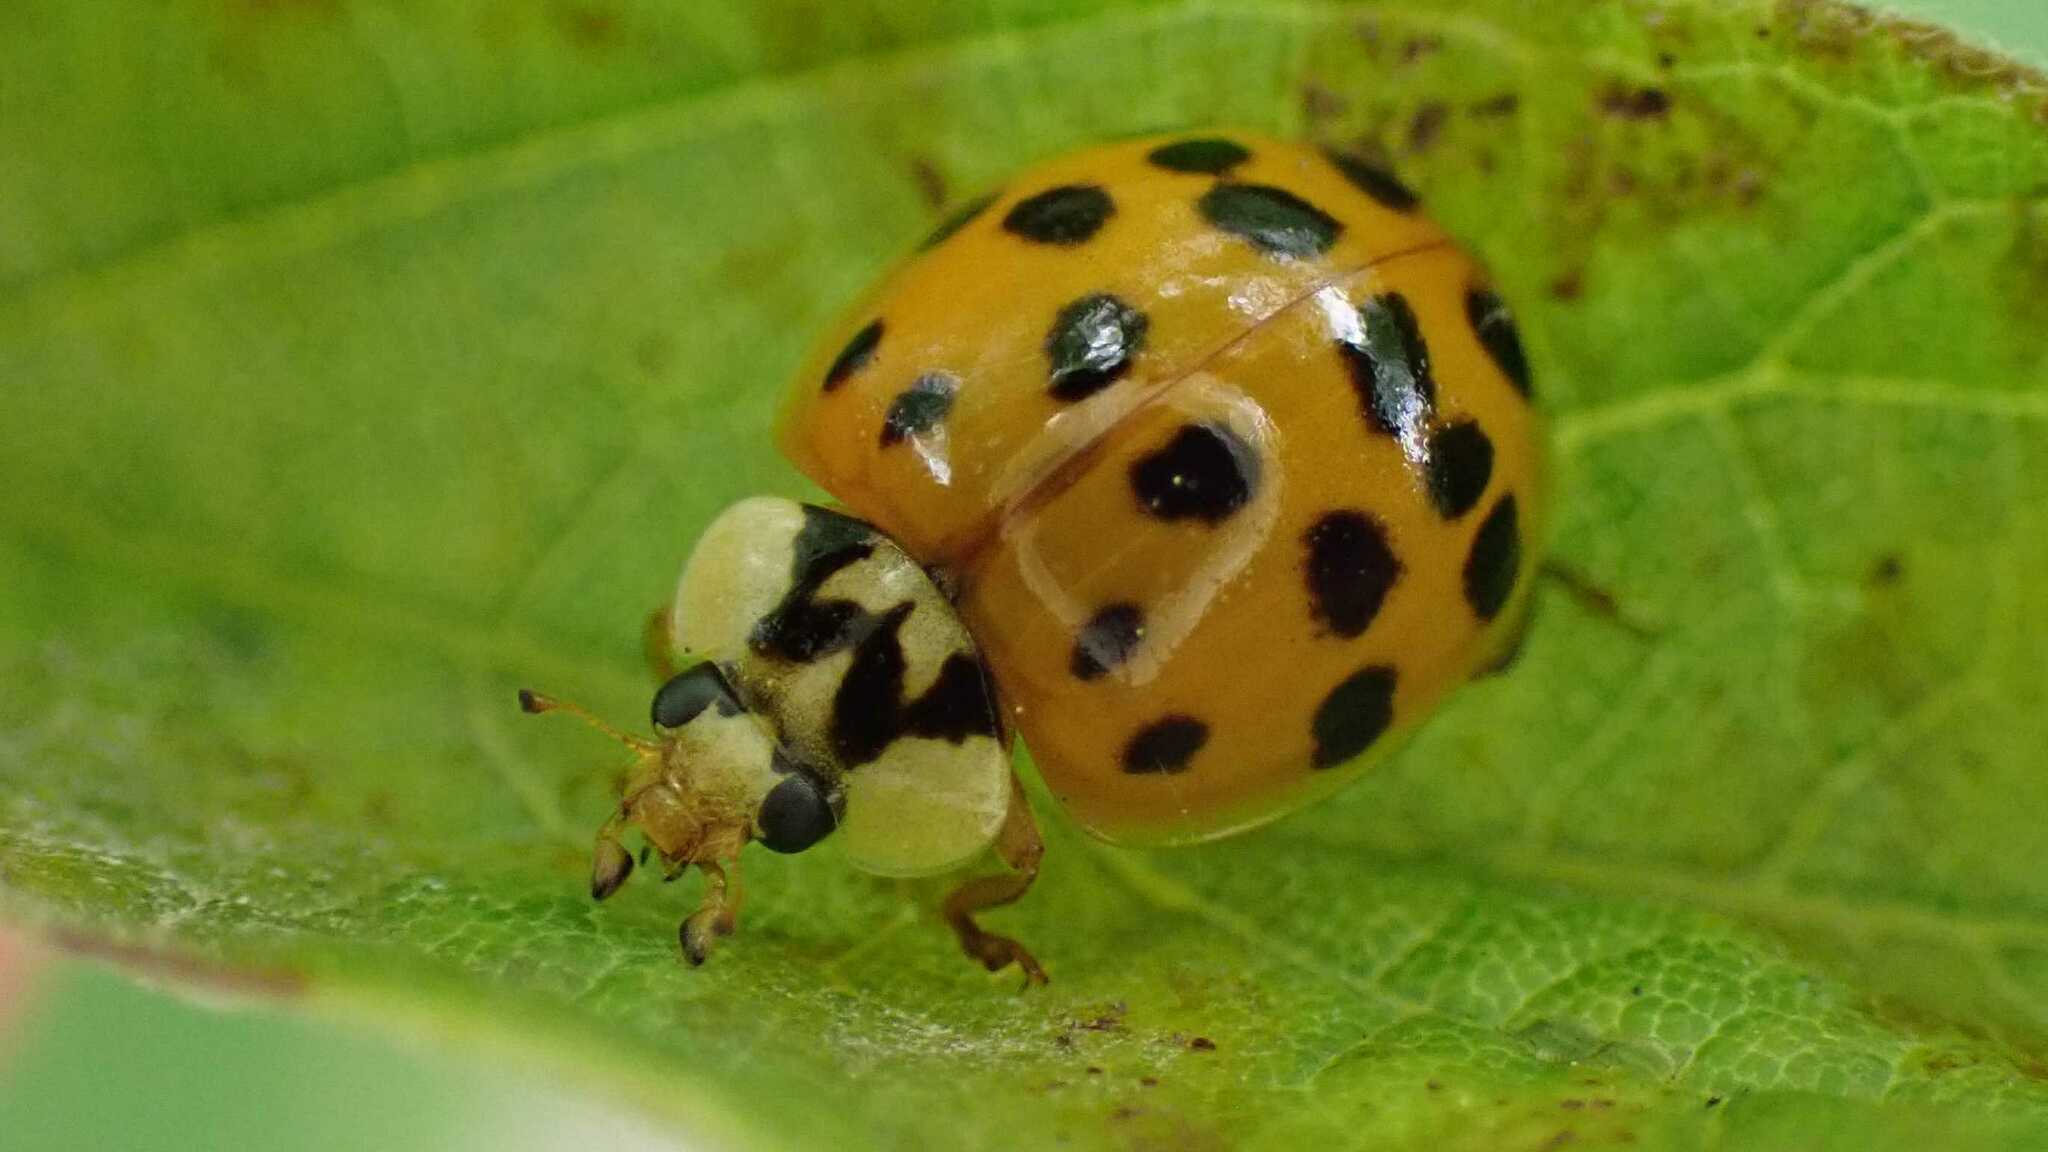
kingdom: Animalia
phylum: Arthropoda
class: Insecta
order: Coleoptera
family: Coccinellidae
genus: Harmonia
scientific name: Harmonia axyridis
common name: Harlequin ladybird
